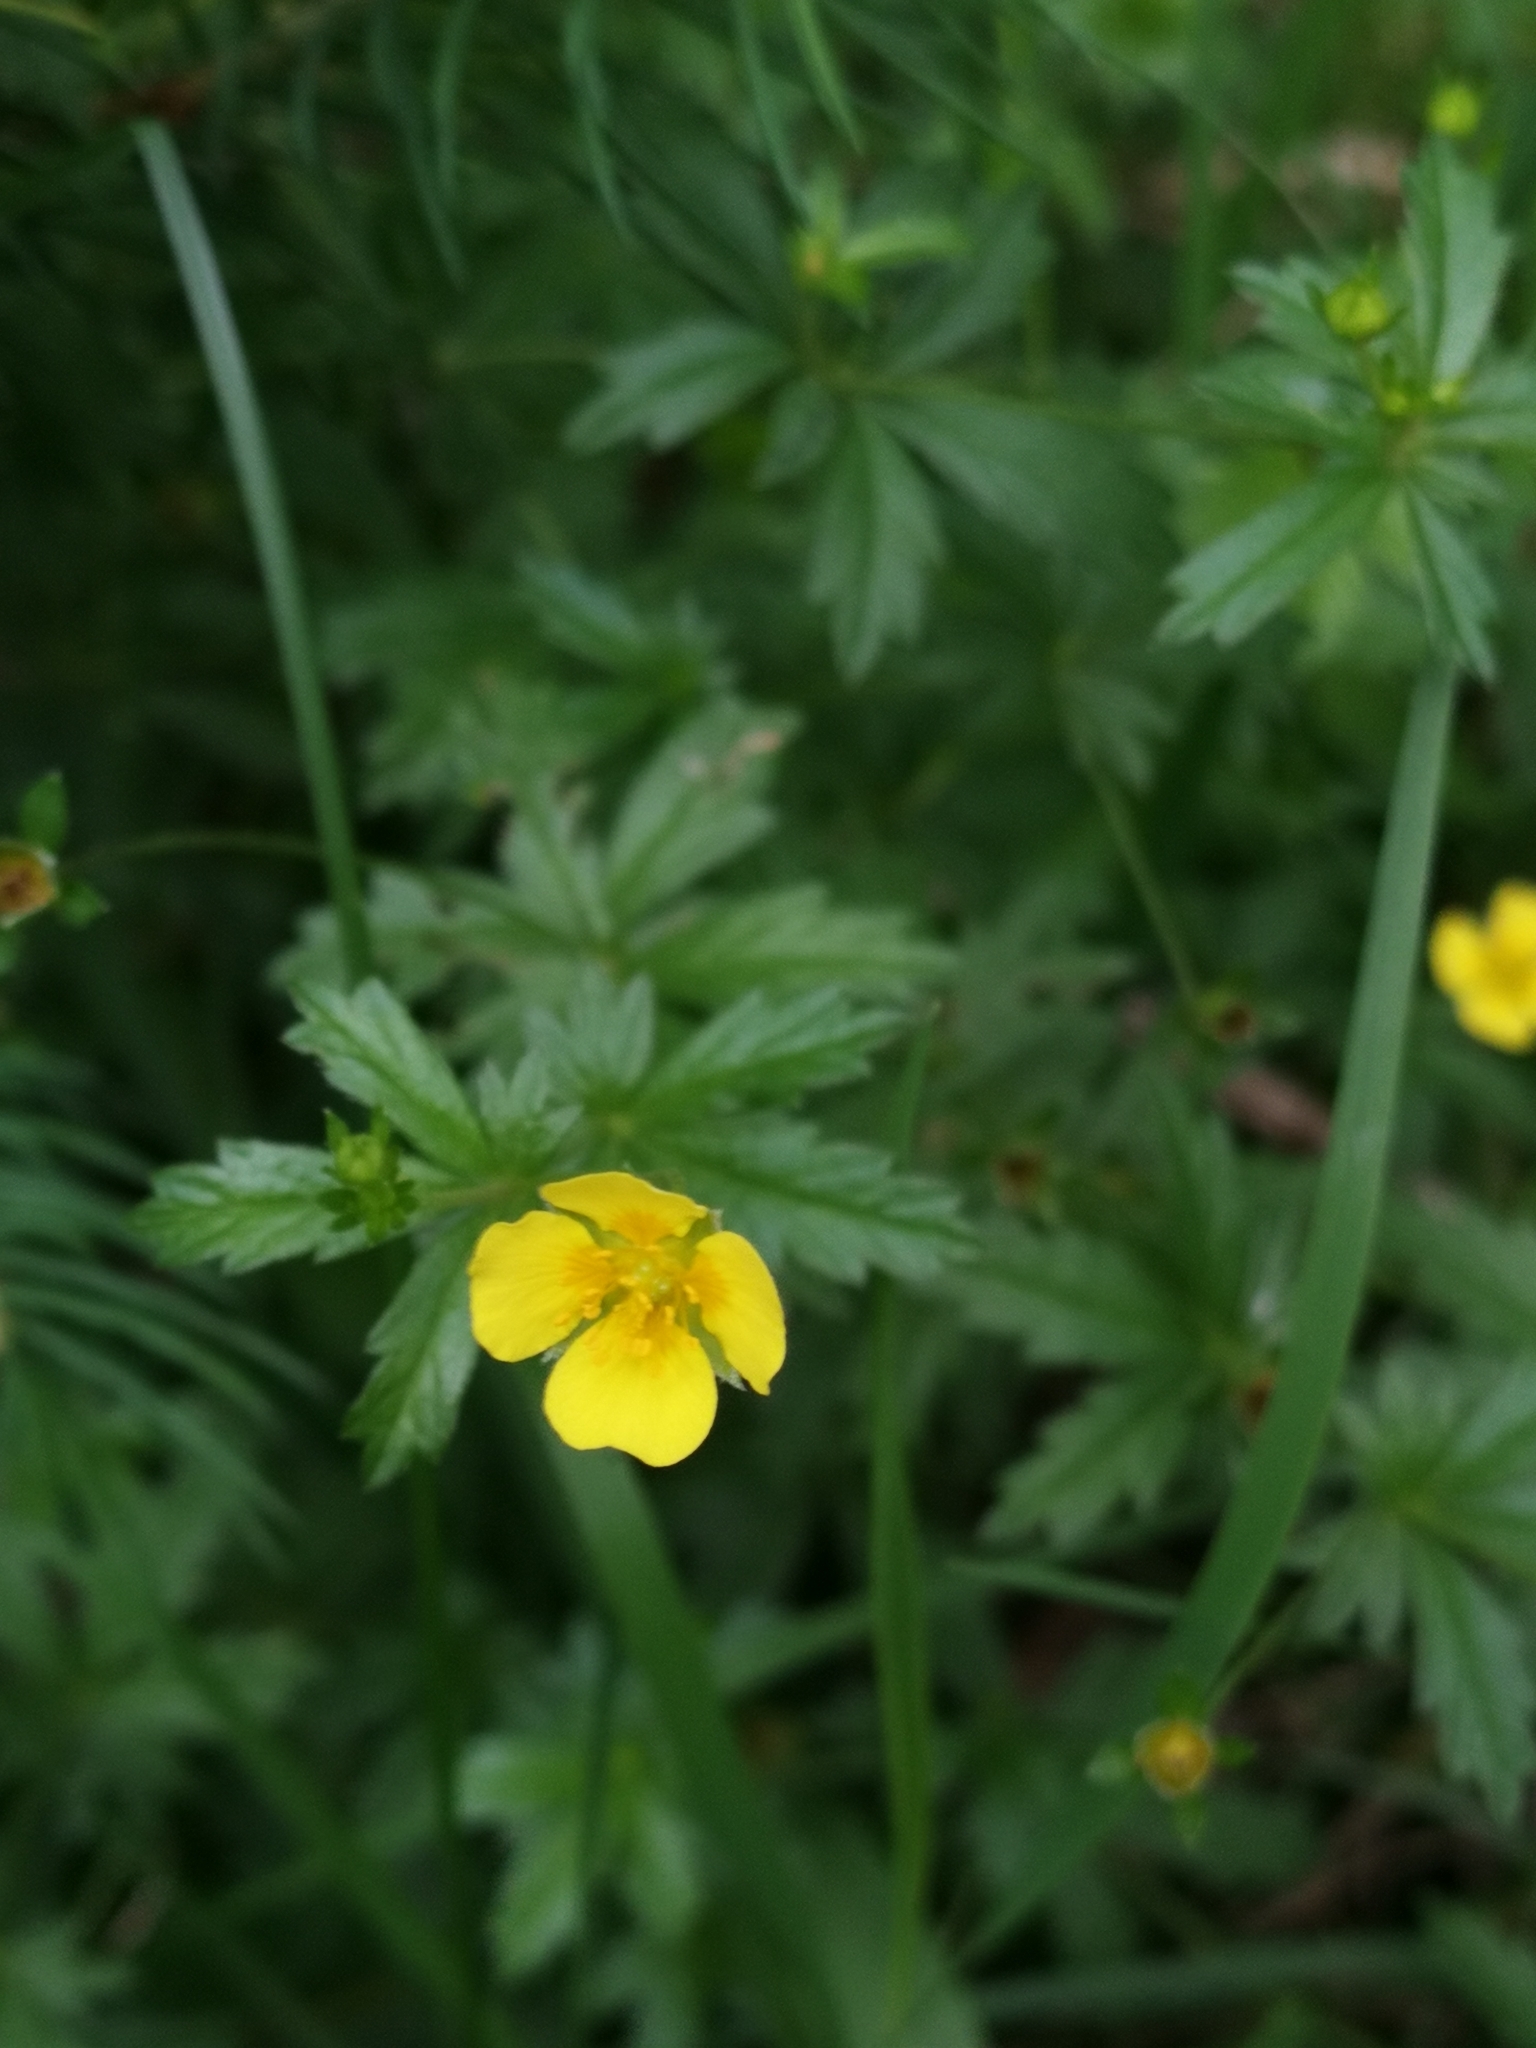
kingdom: Plantae
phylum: Tracheophyta
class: Magnoliopsida
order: Rosales
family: Rosaceae
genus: Potentilla
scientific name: Potentilla erecta
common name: Tormentil
